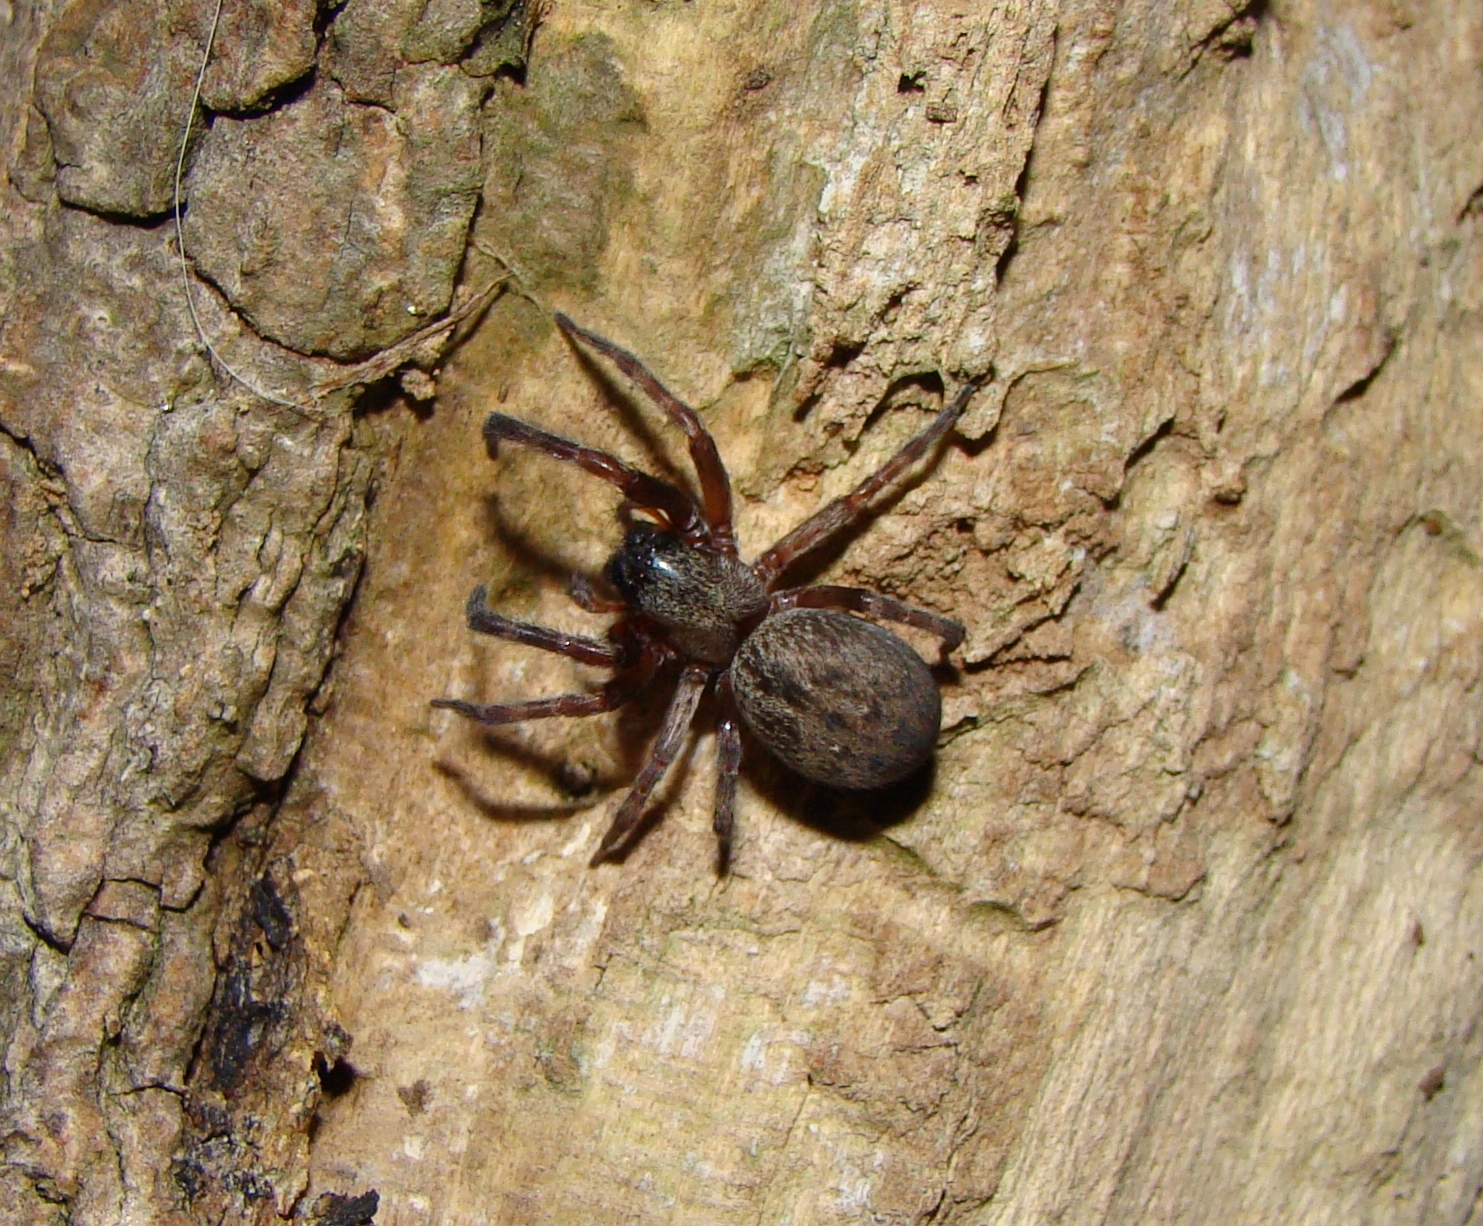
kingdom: Animalia
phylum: Arthropoda
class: Arachnida
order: Araneae
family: Desidae
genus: Badumna
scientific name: Badumna longinqua
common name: Gray house spider
